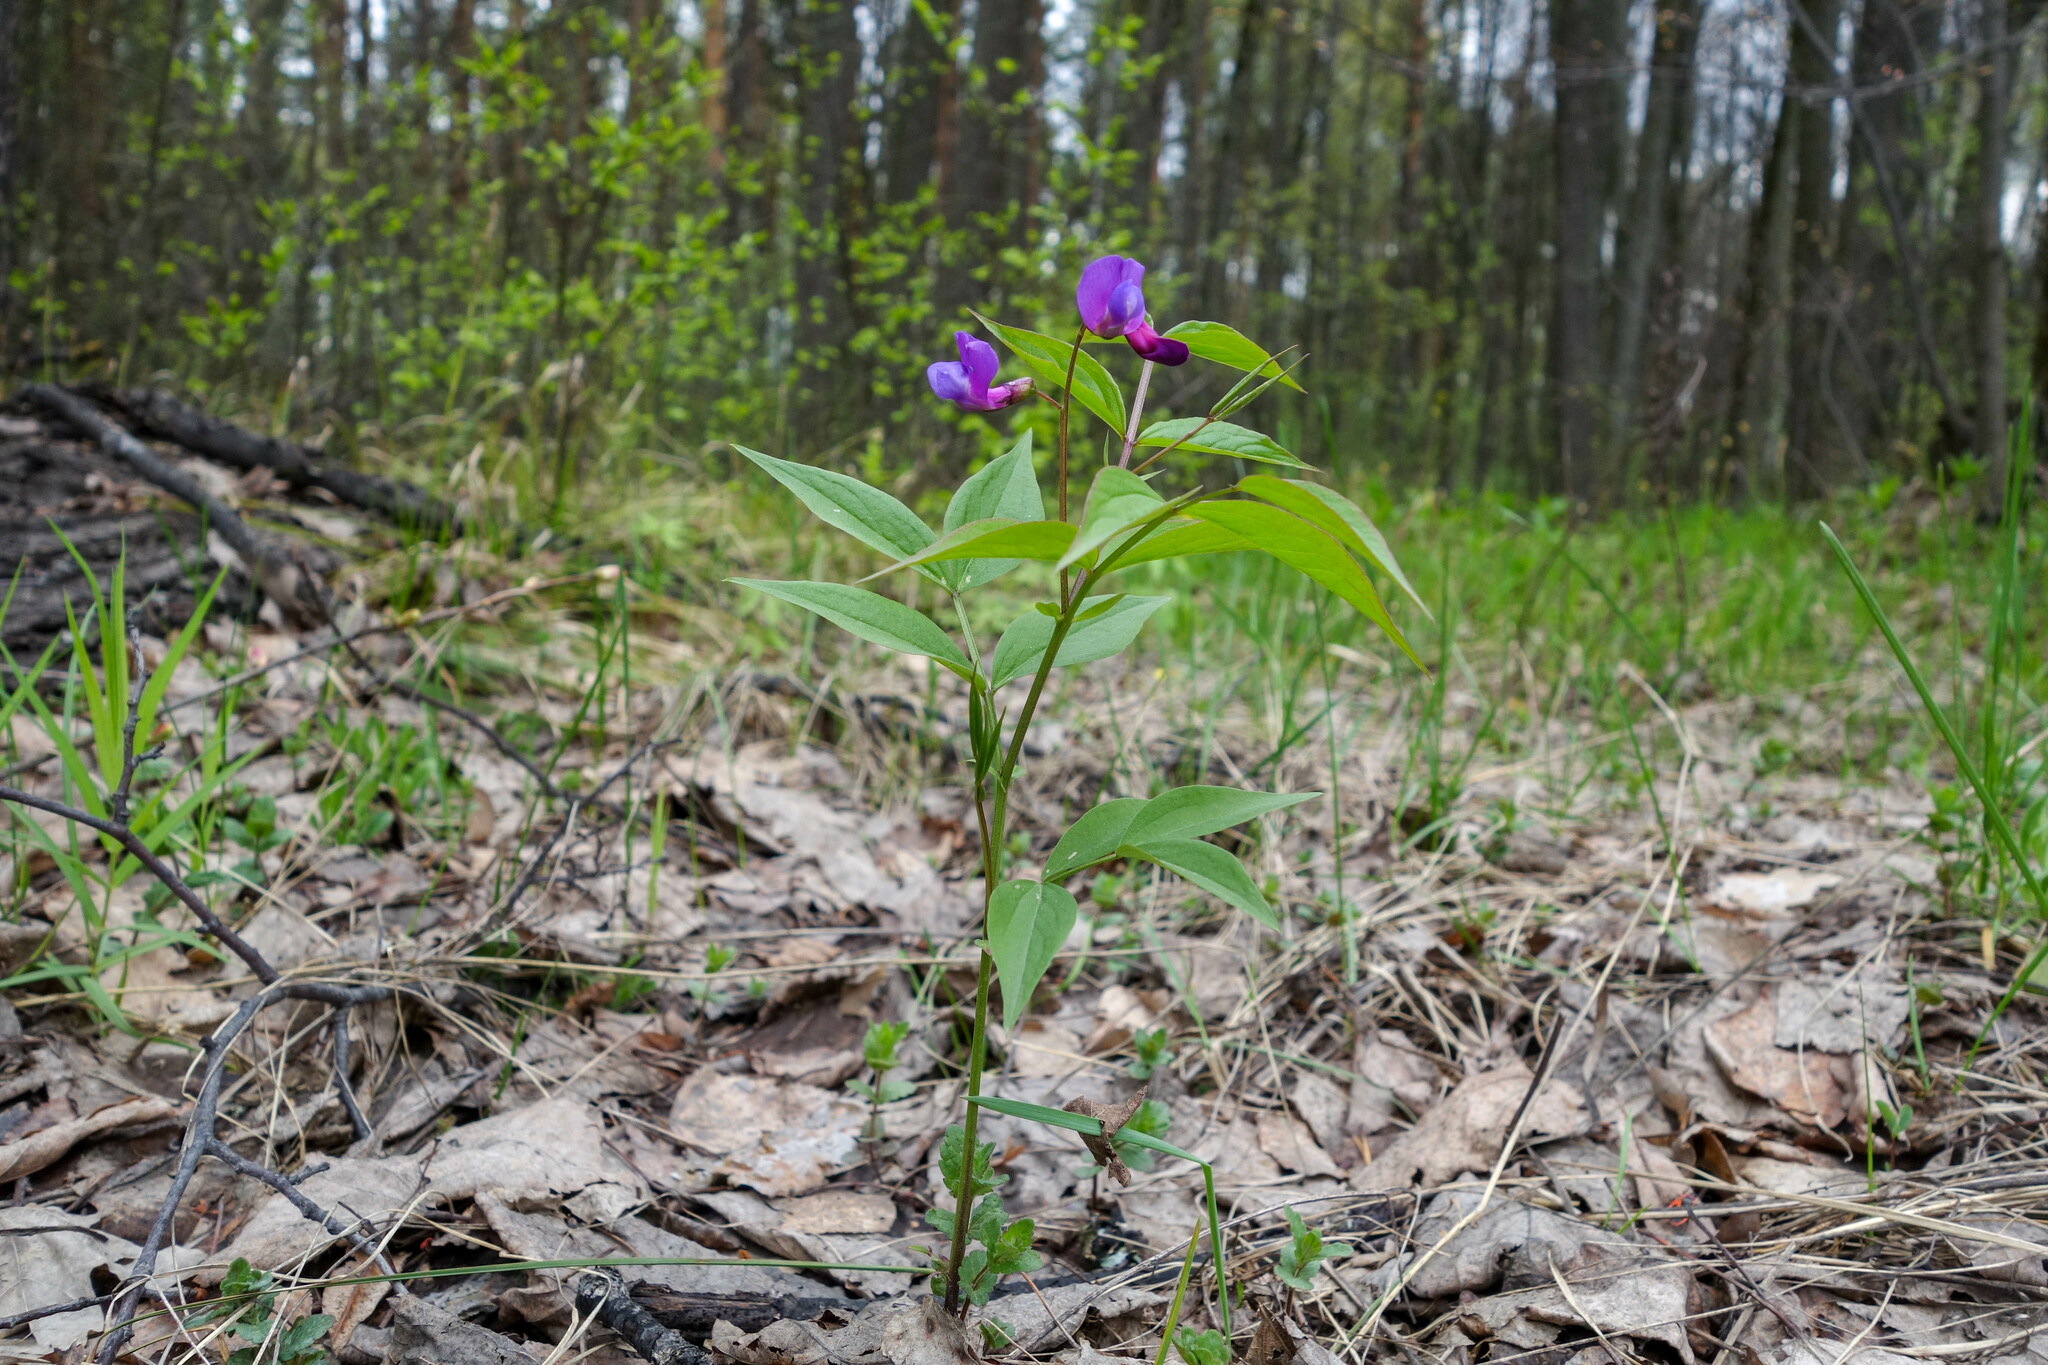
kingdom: Plantae
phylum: Tracheophyta
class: Magnoliopsida
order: Fabales
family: Fabaceae
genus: Lathyrus
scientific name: Lathyrus vernus
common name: Spring pea
